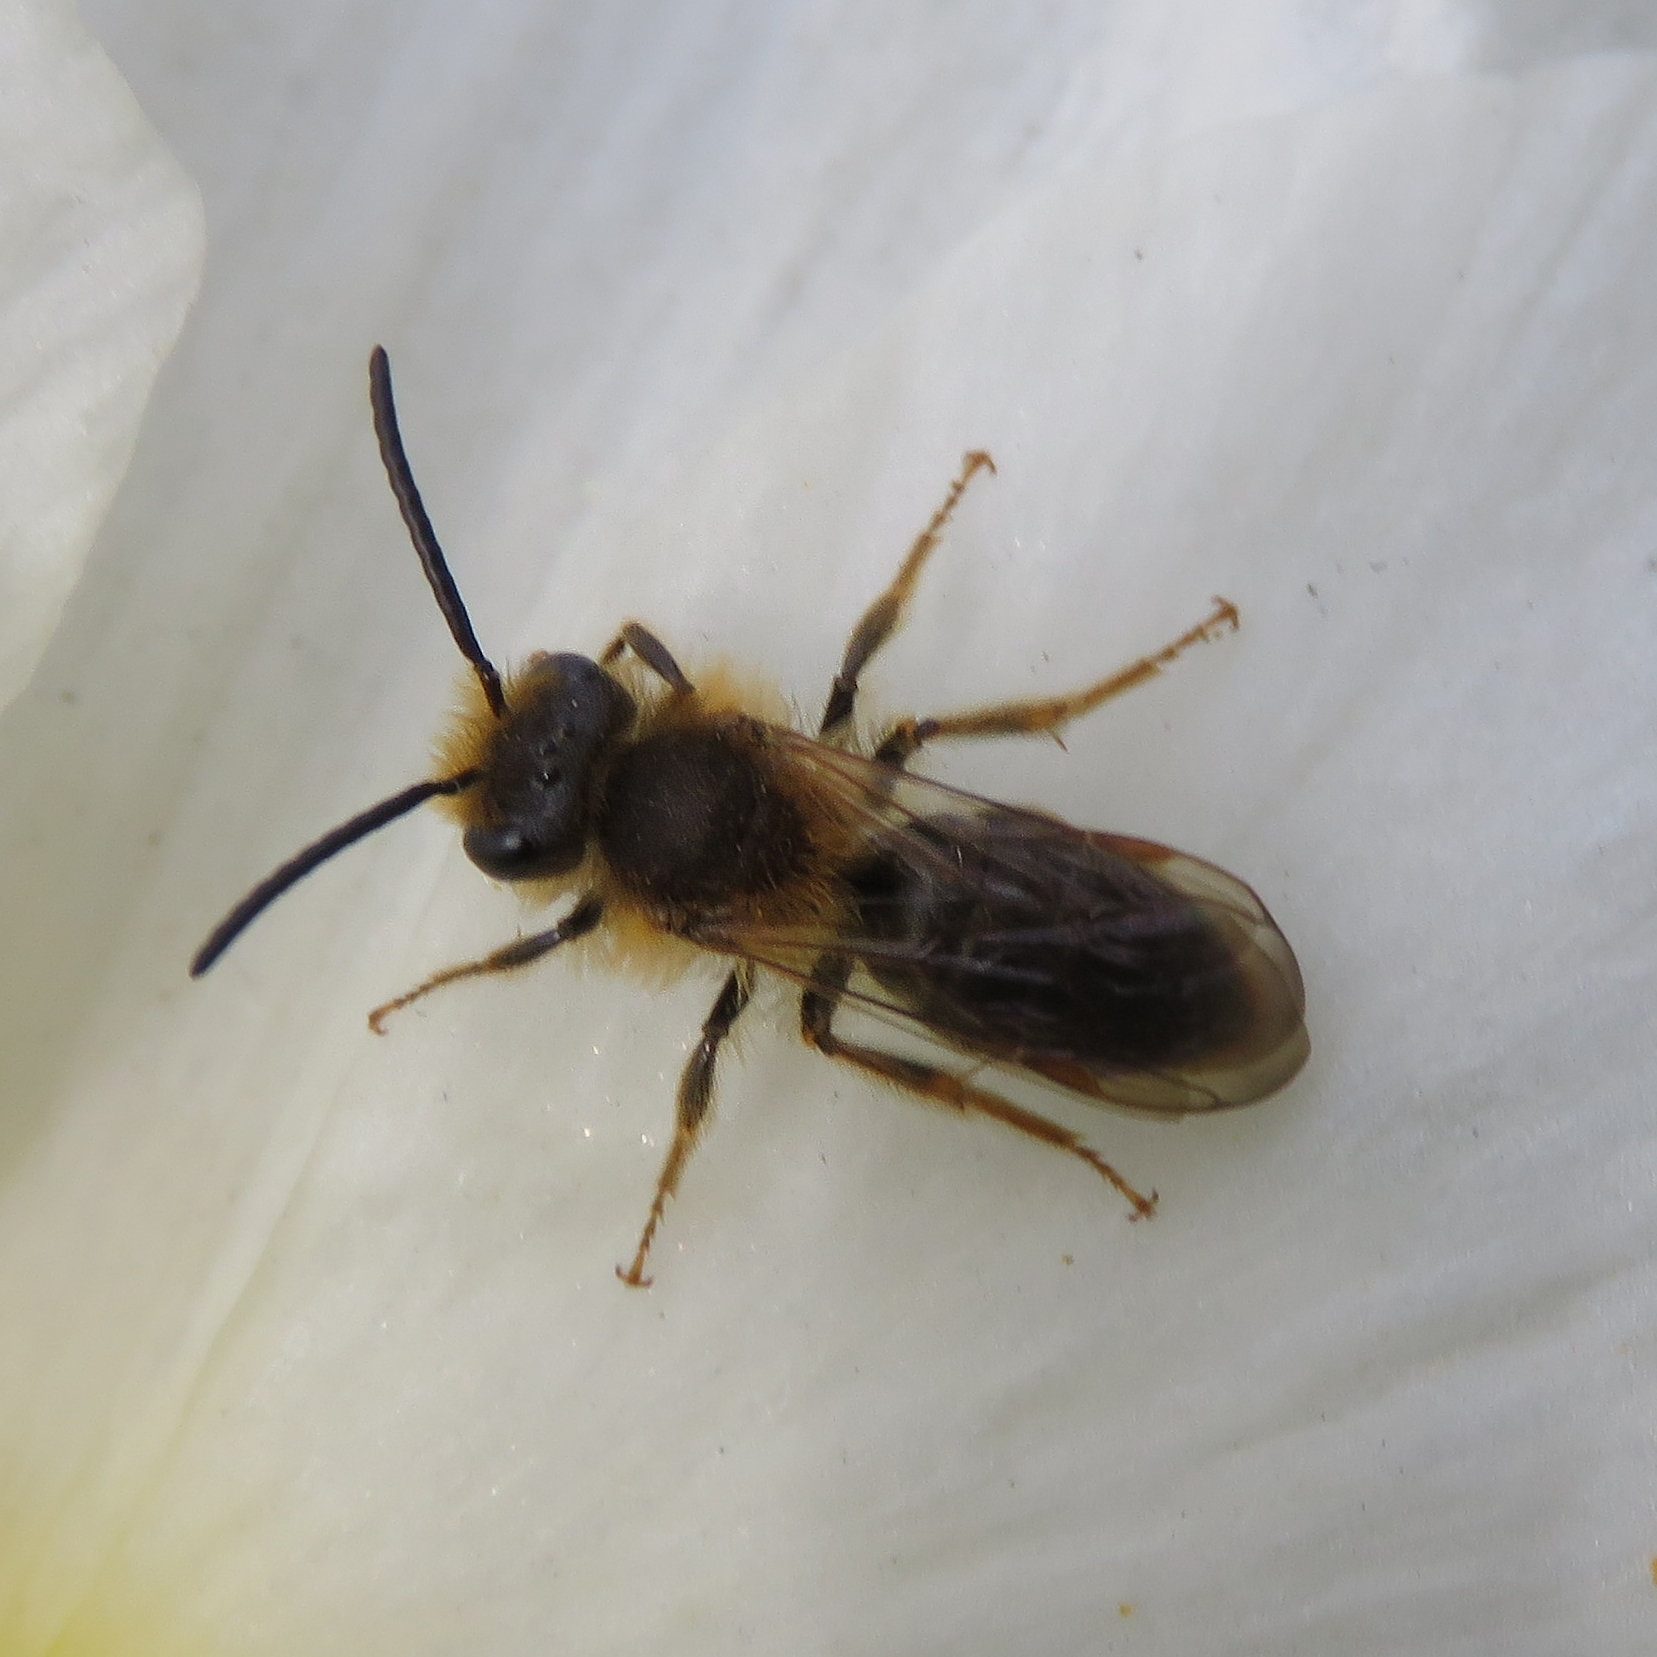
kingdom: Animalia
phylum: Arthropoda
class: Insecta
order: Hymenoptera
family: Andrenidae
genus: Andrena
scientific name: Andrena haemorrhoa
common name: Early mining bee
